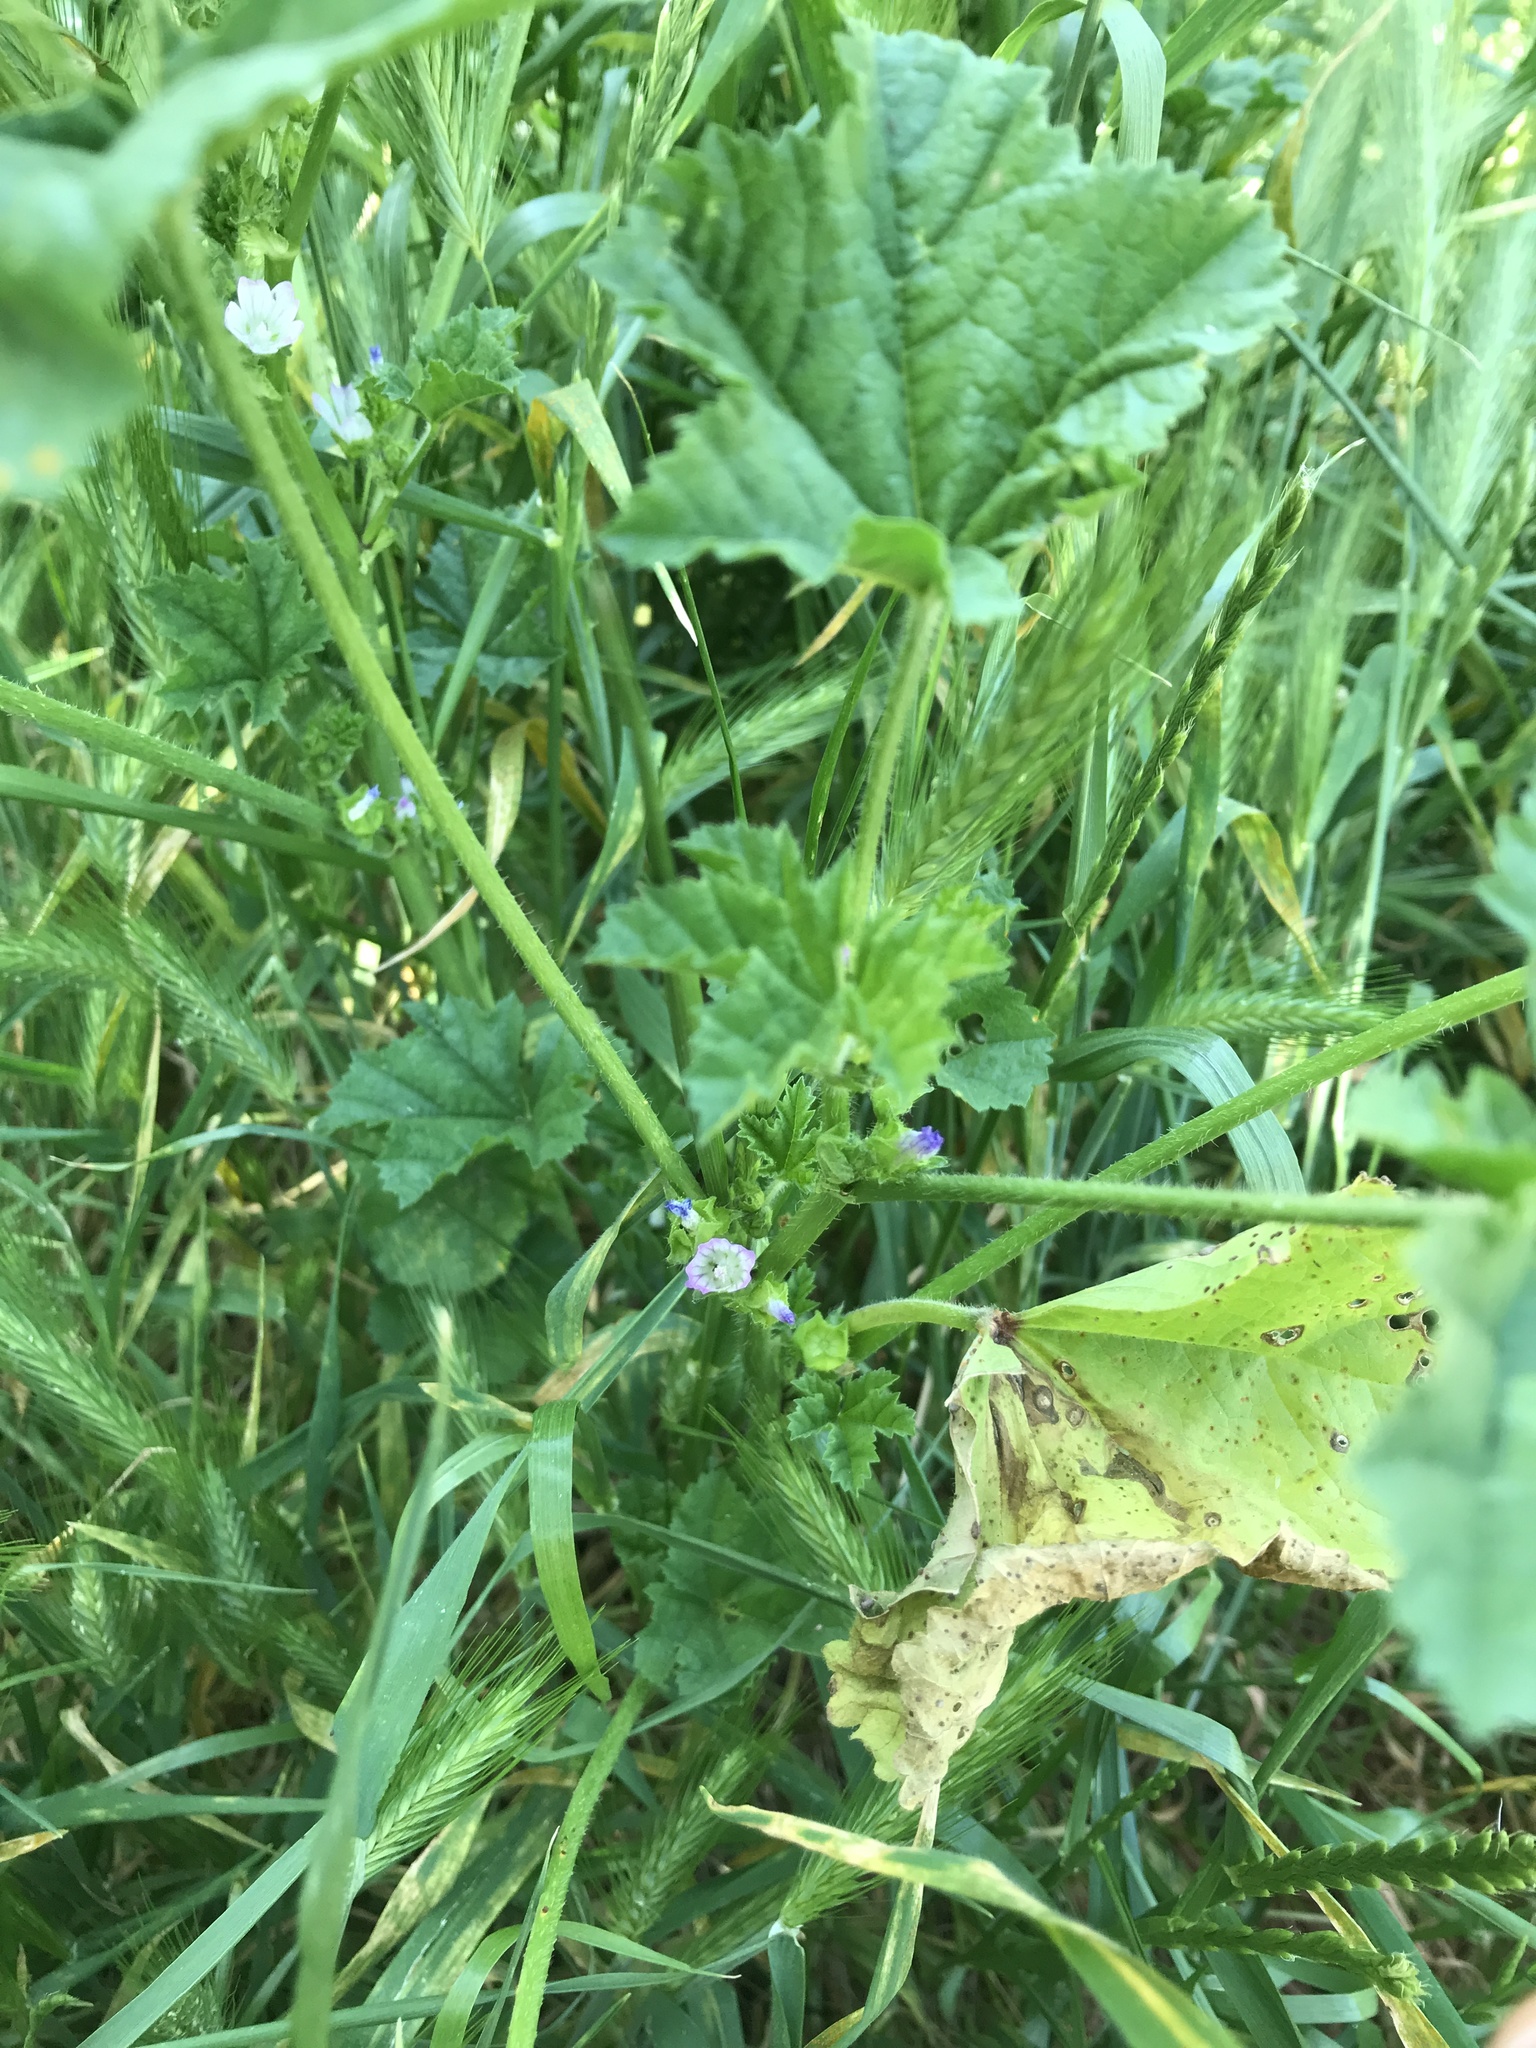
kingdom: Plantae
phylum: Tracheophyta
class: Magnoliopsida
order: Malvales
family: Malvaceae
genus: Malva
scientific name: Malva nicaeensis
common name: French mallow
